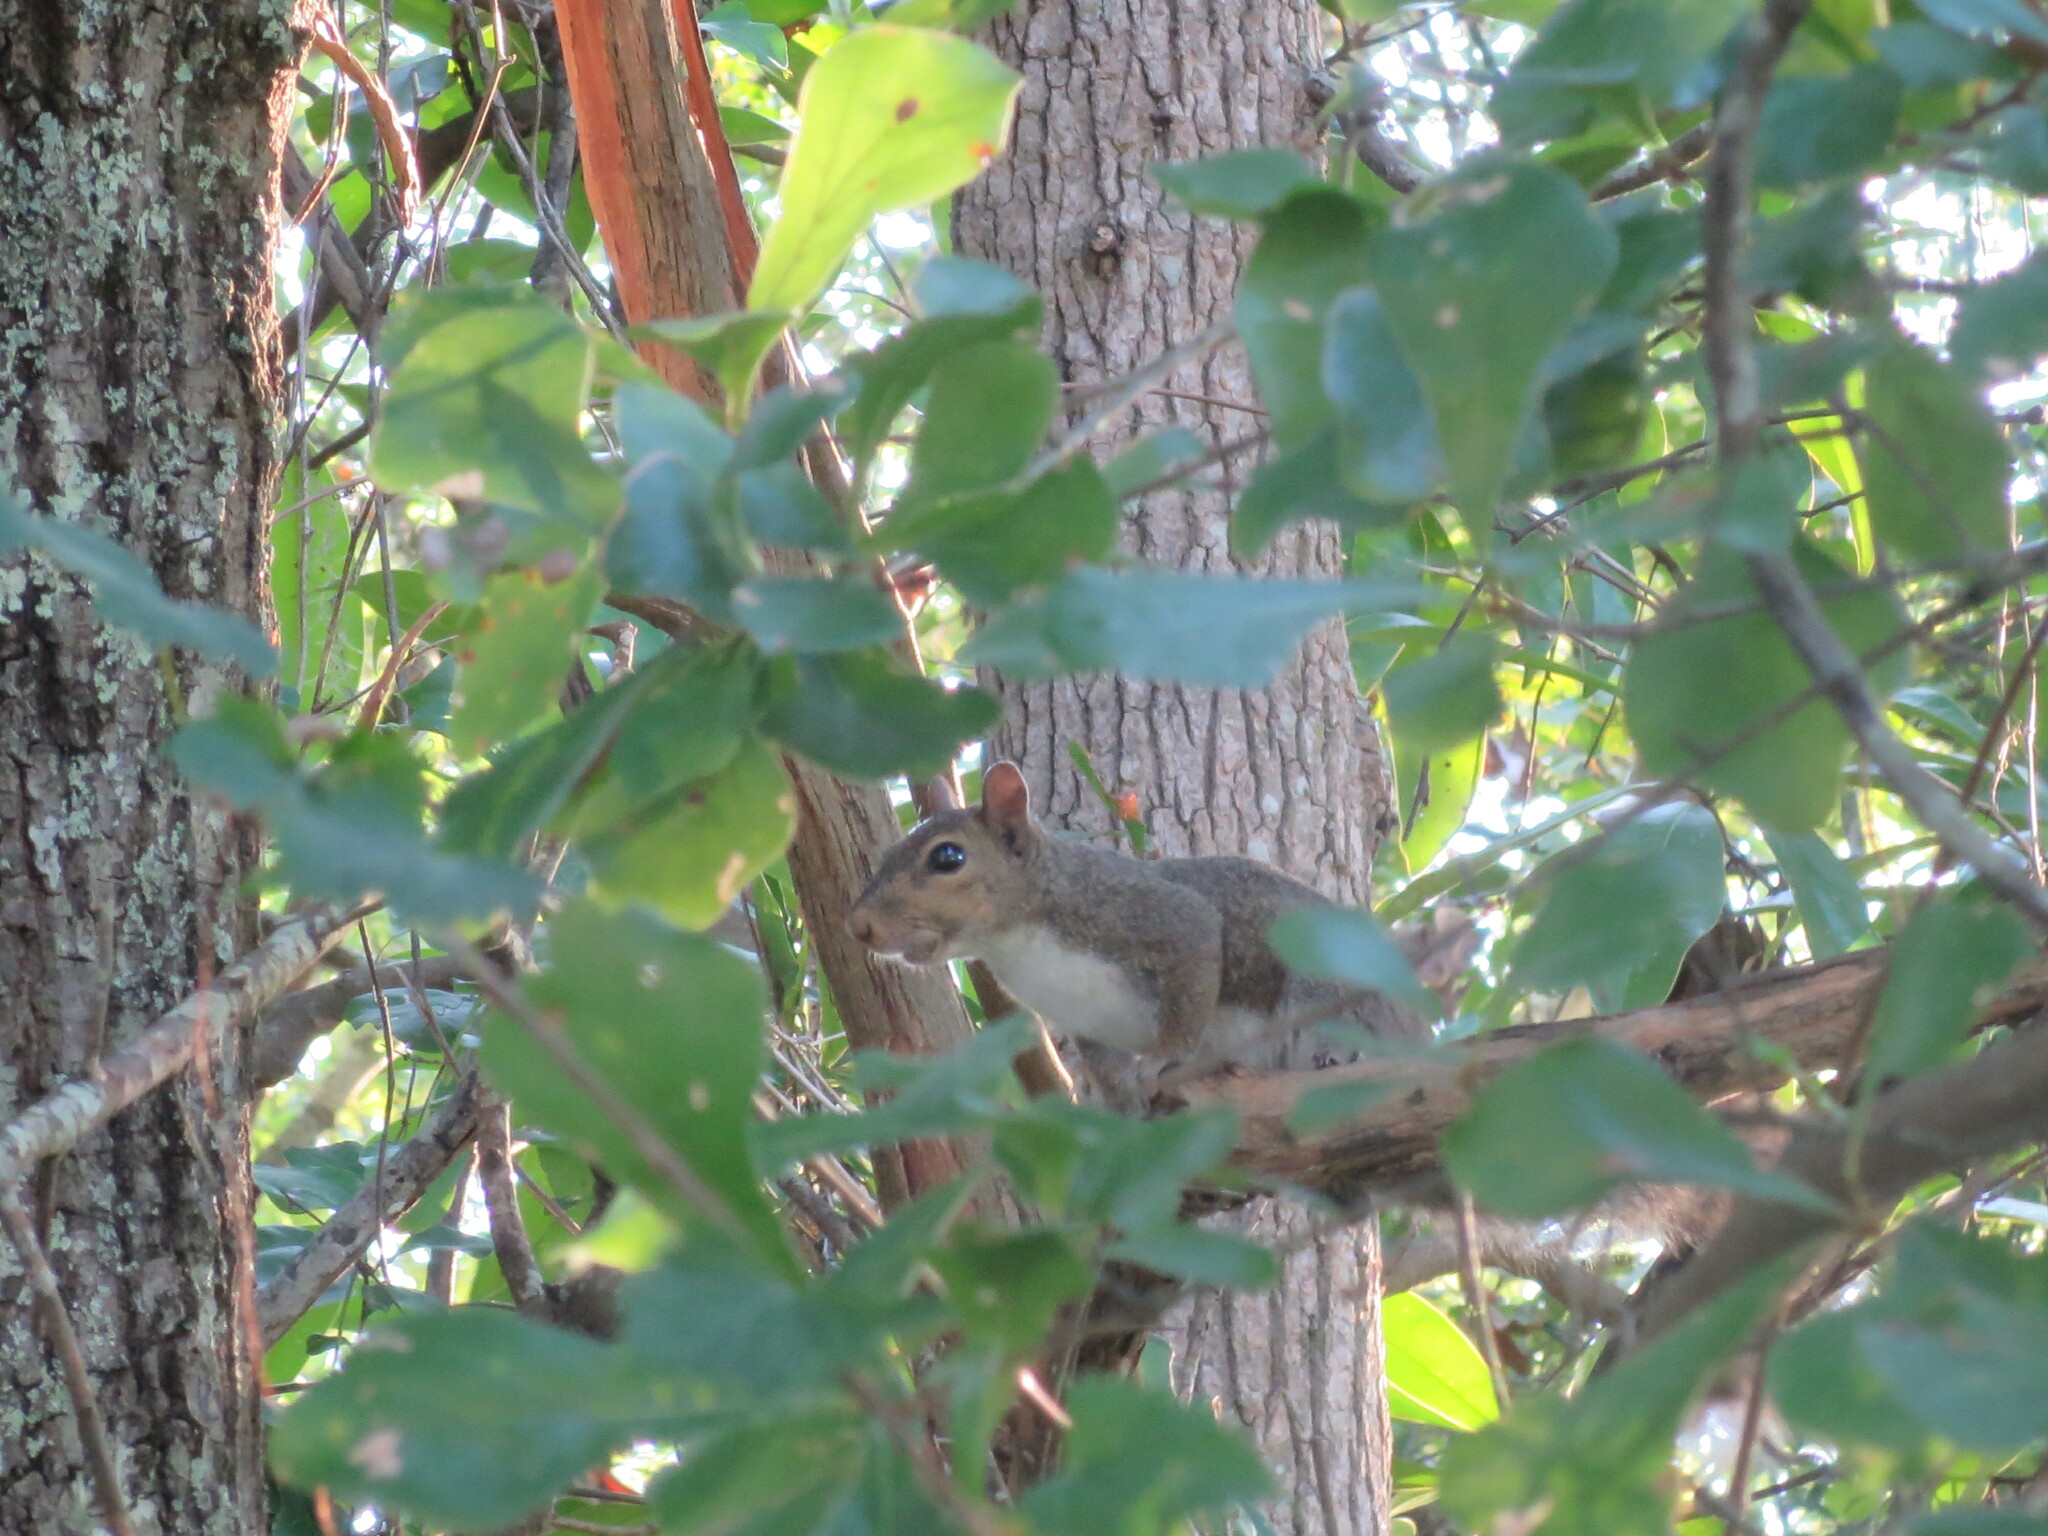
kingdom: Animalia
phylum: Chordata
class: Mammalia
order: Rodentia
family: Sciuridae
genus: Sciurus
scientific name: Sciurus carolinensis
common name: Eastern gray squirrel
